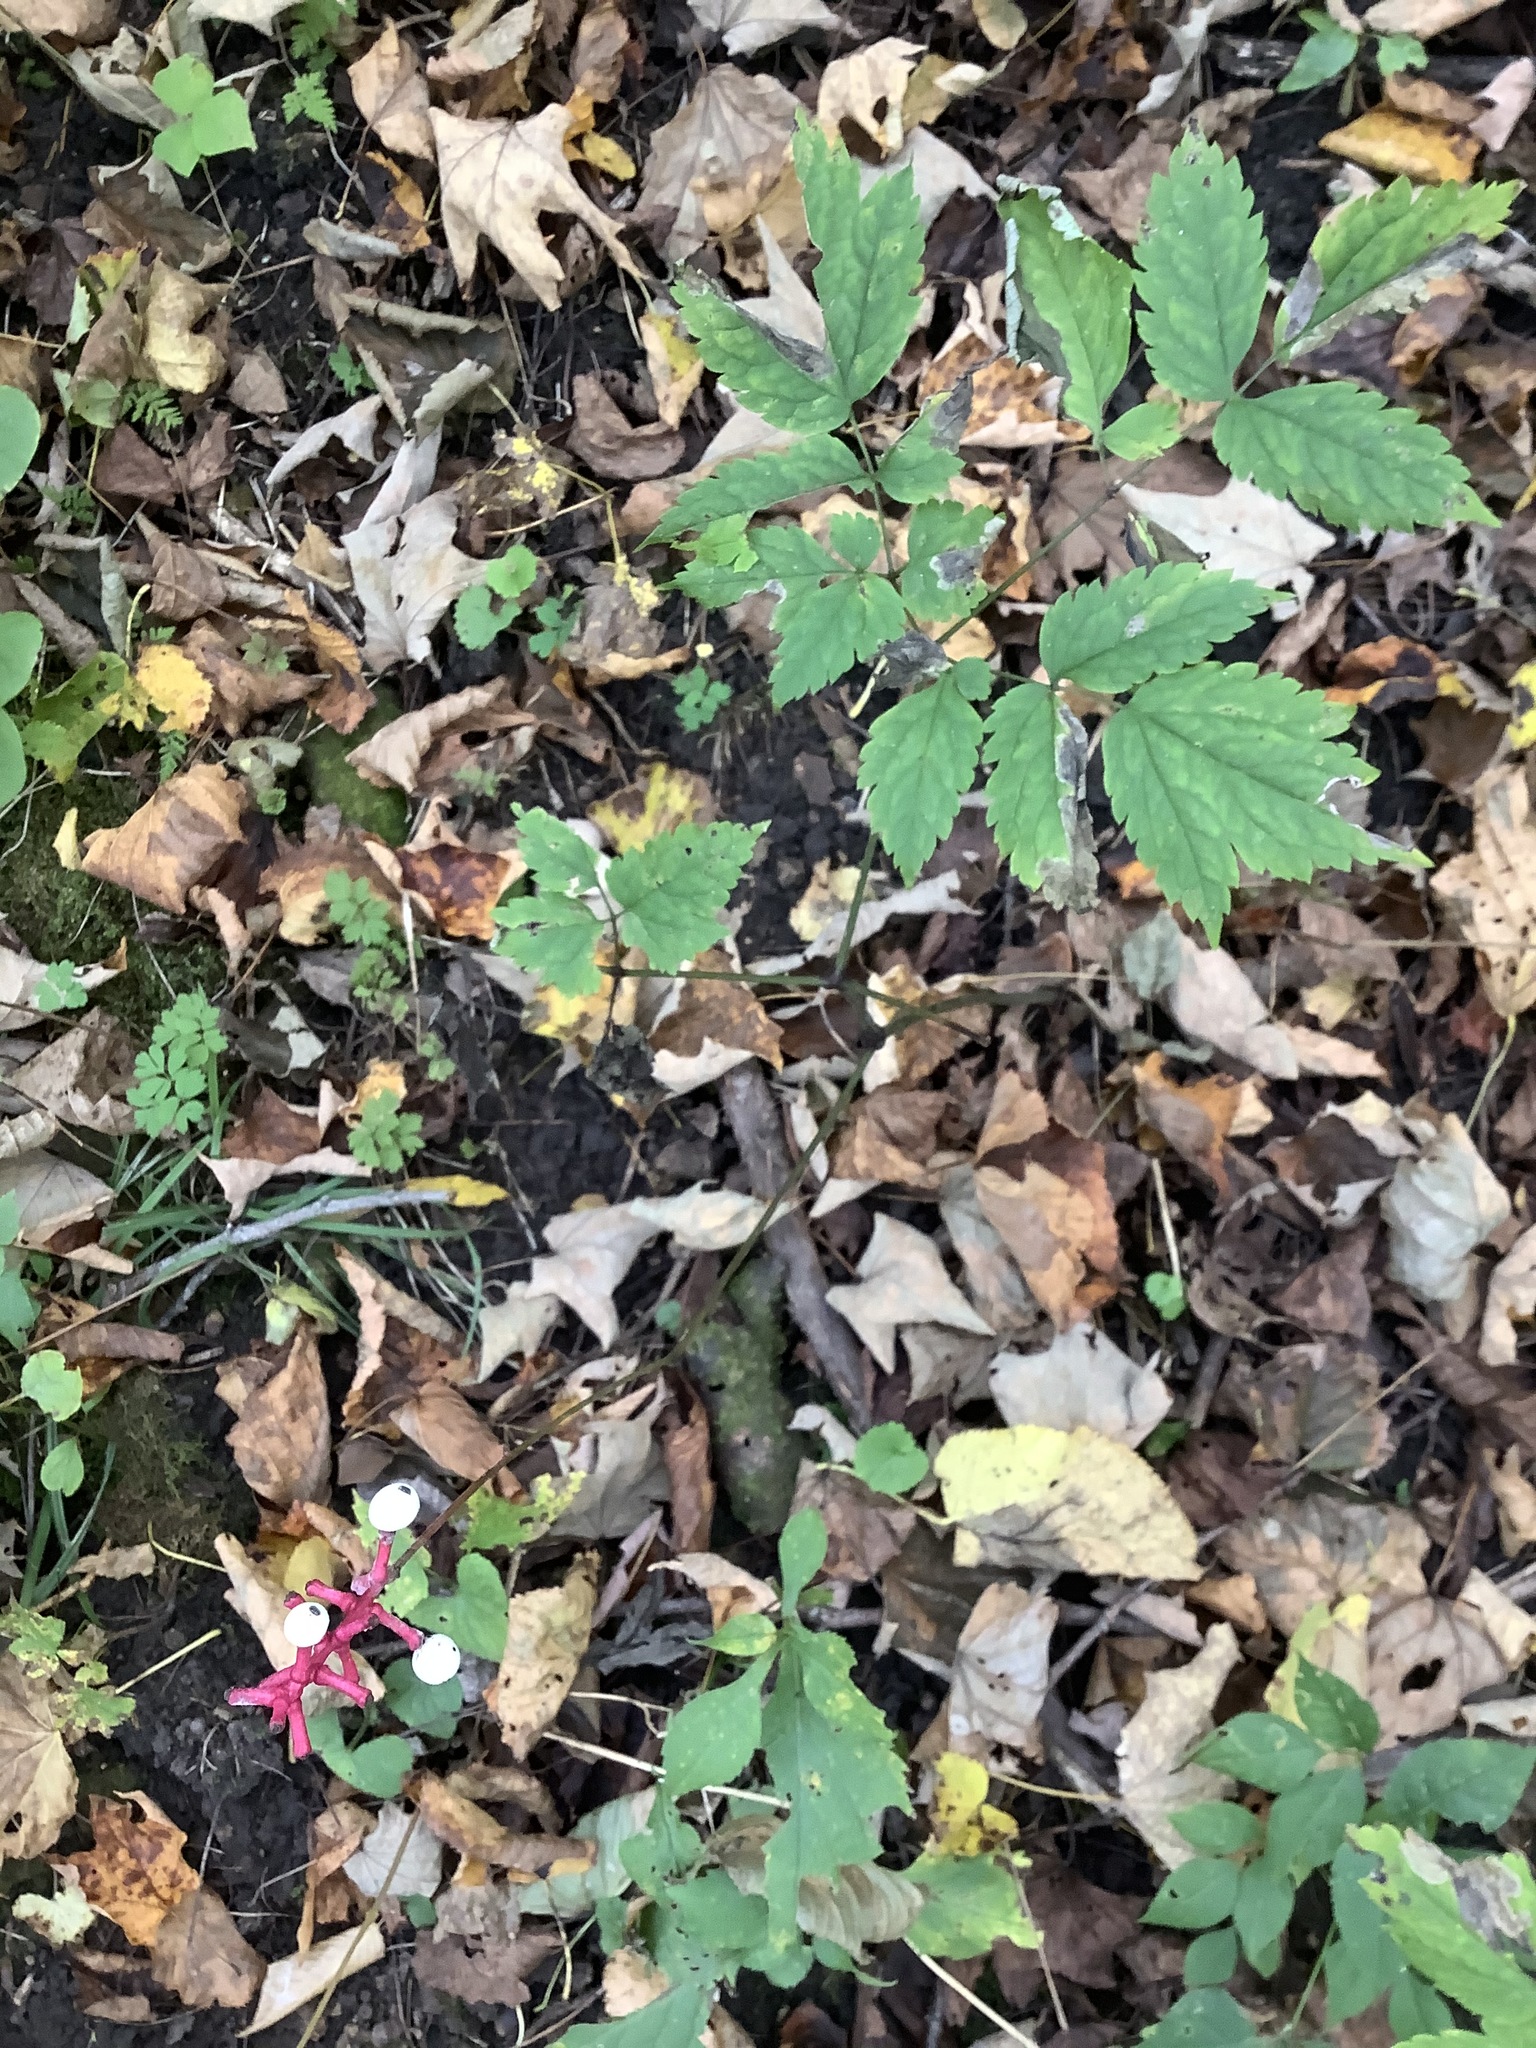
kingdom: Plantae
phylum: Tracheophyta
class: Magnoliopsida
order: Ranunculales
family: Ranunculaceae
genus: Actaea
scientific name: Actaea pachypoda
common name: Doll's-eyes
